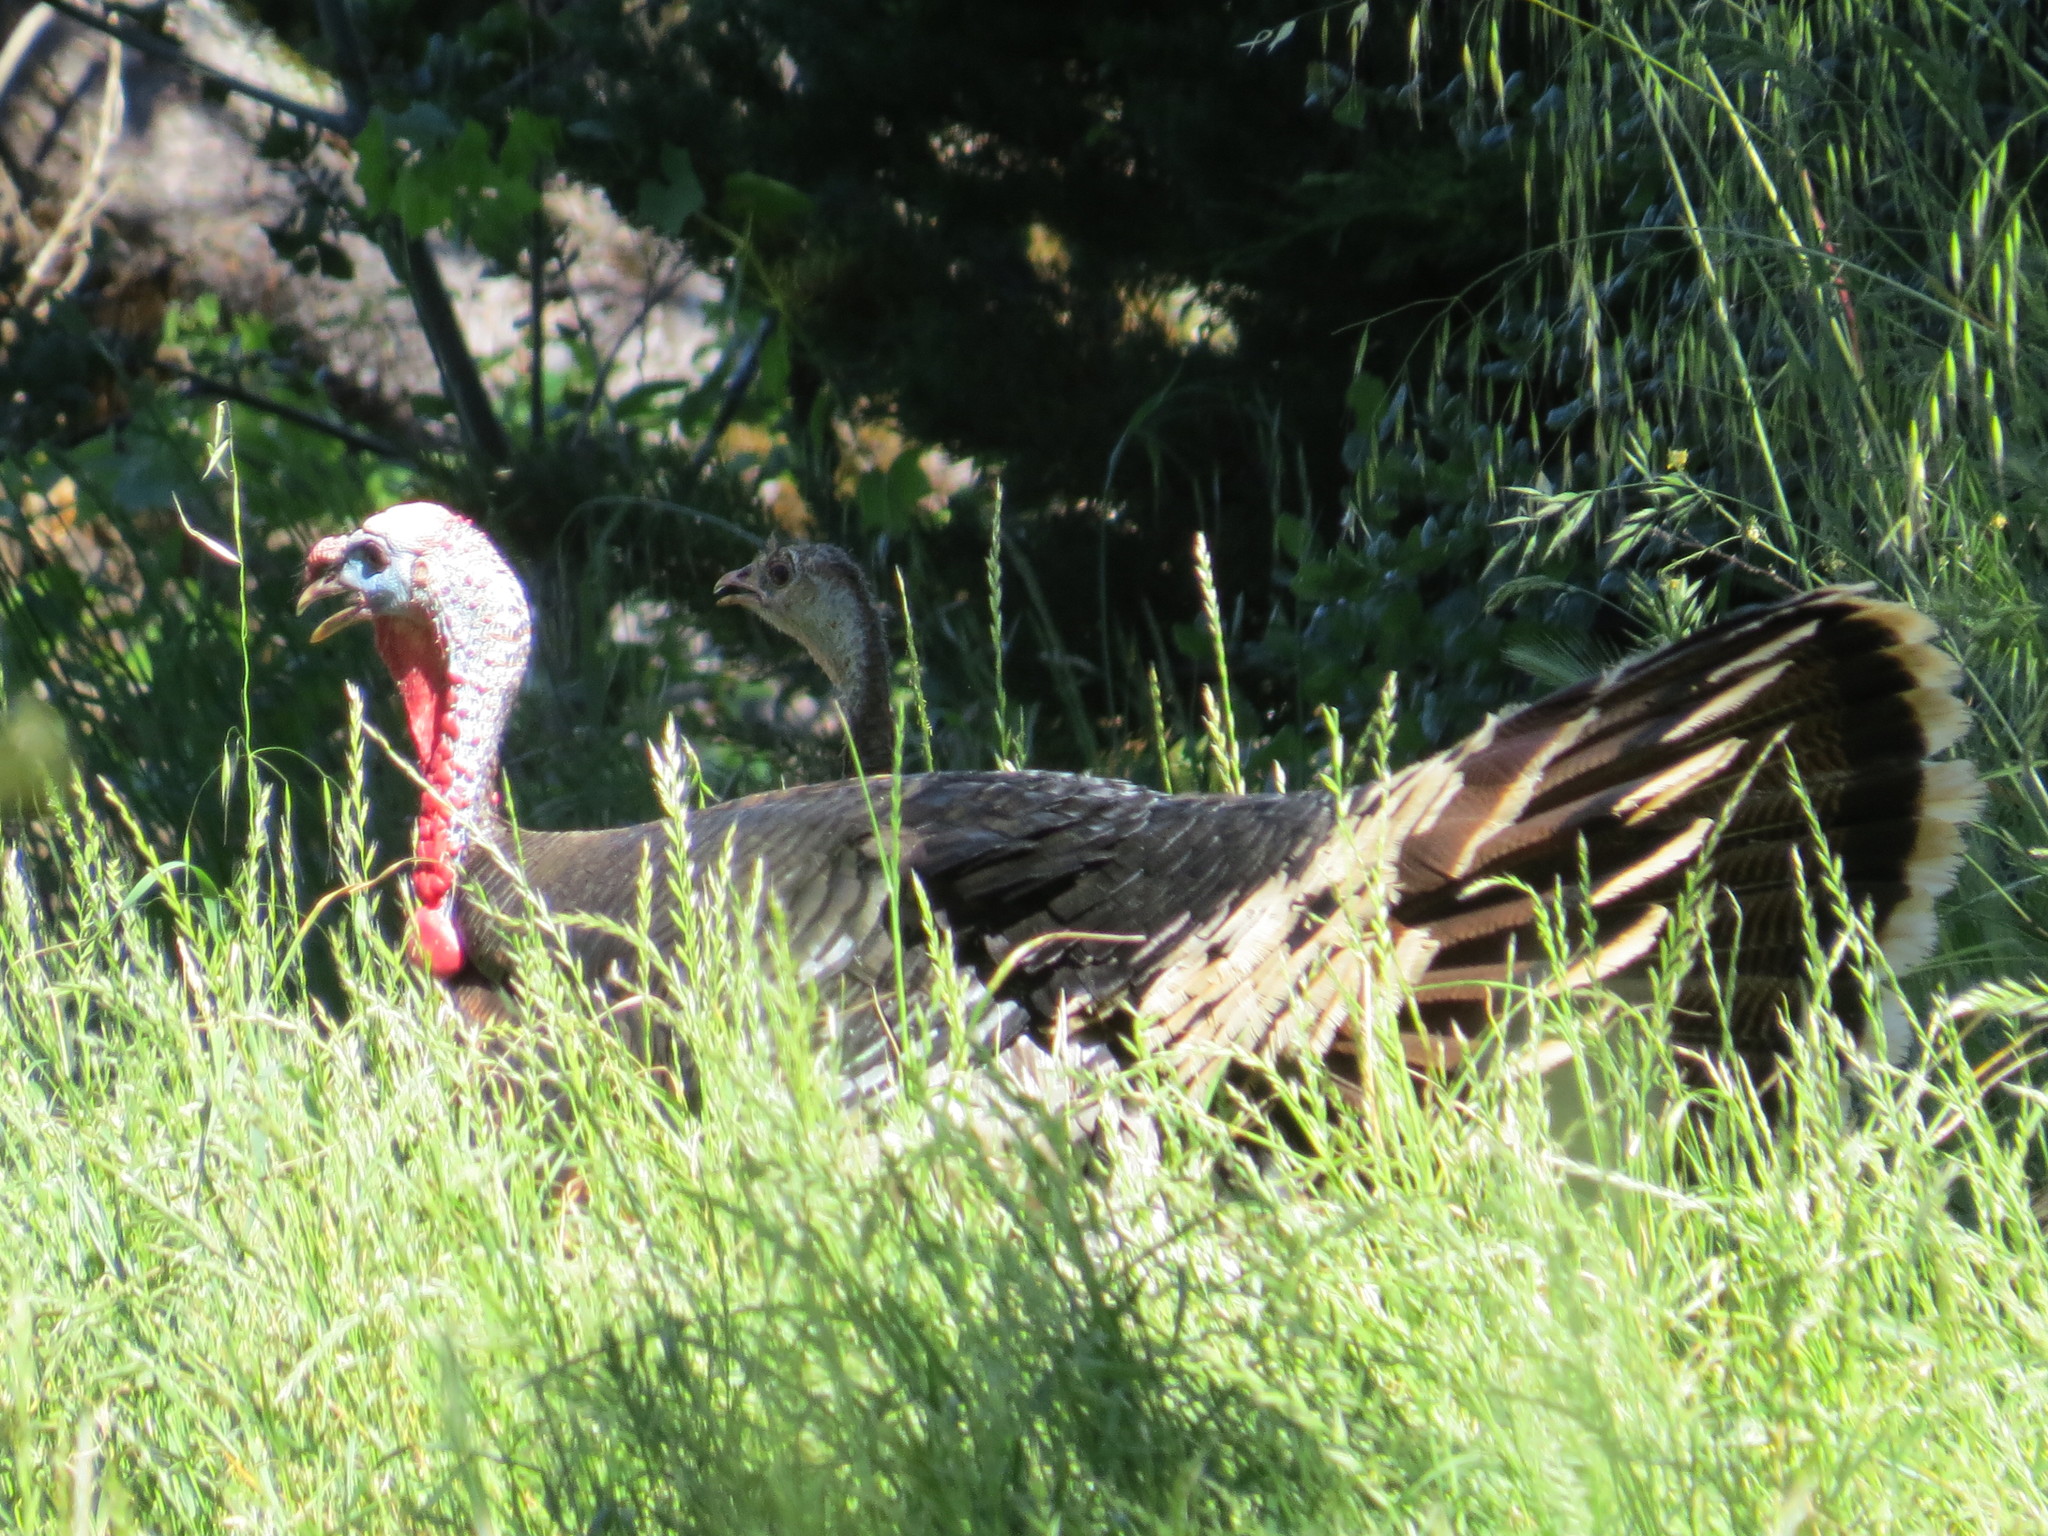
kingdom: Animalia
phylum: Chordata
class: Aves
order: Galliformes
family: Phasianidae
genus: Meleagris
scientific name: Meleagris gallopavo
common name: Wild turkey
